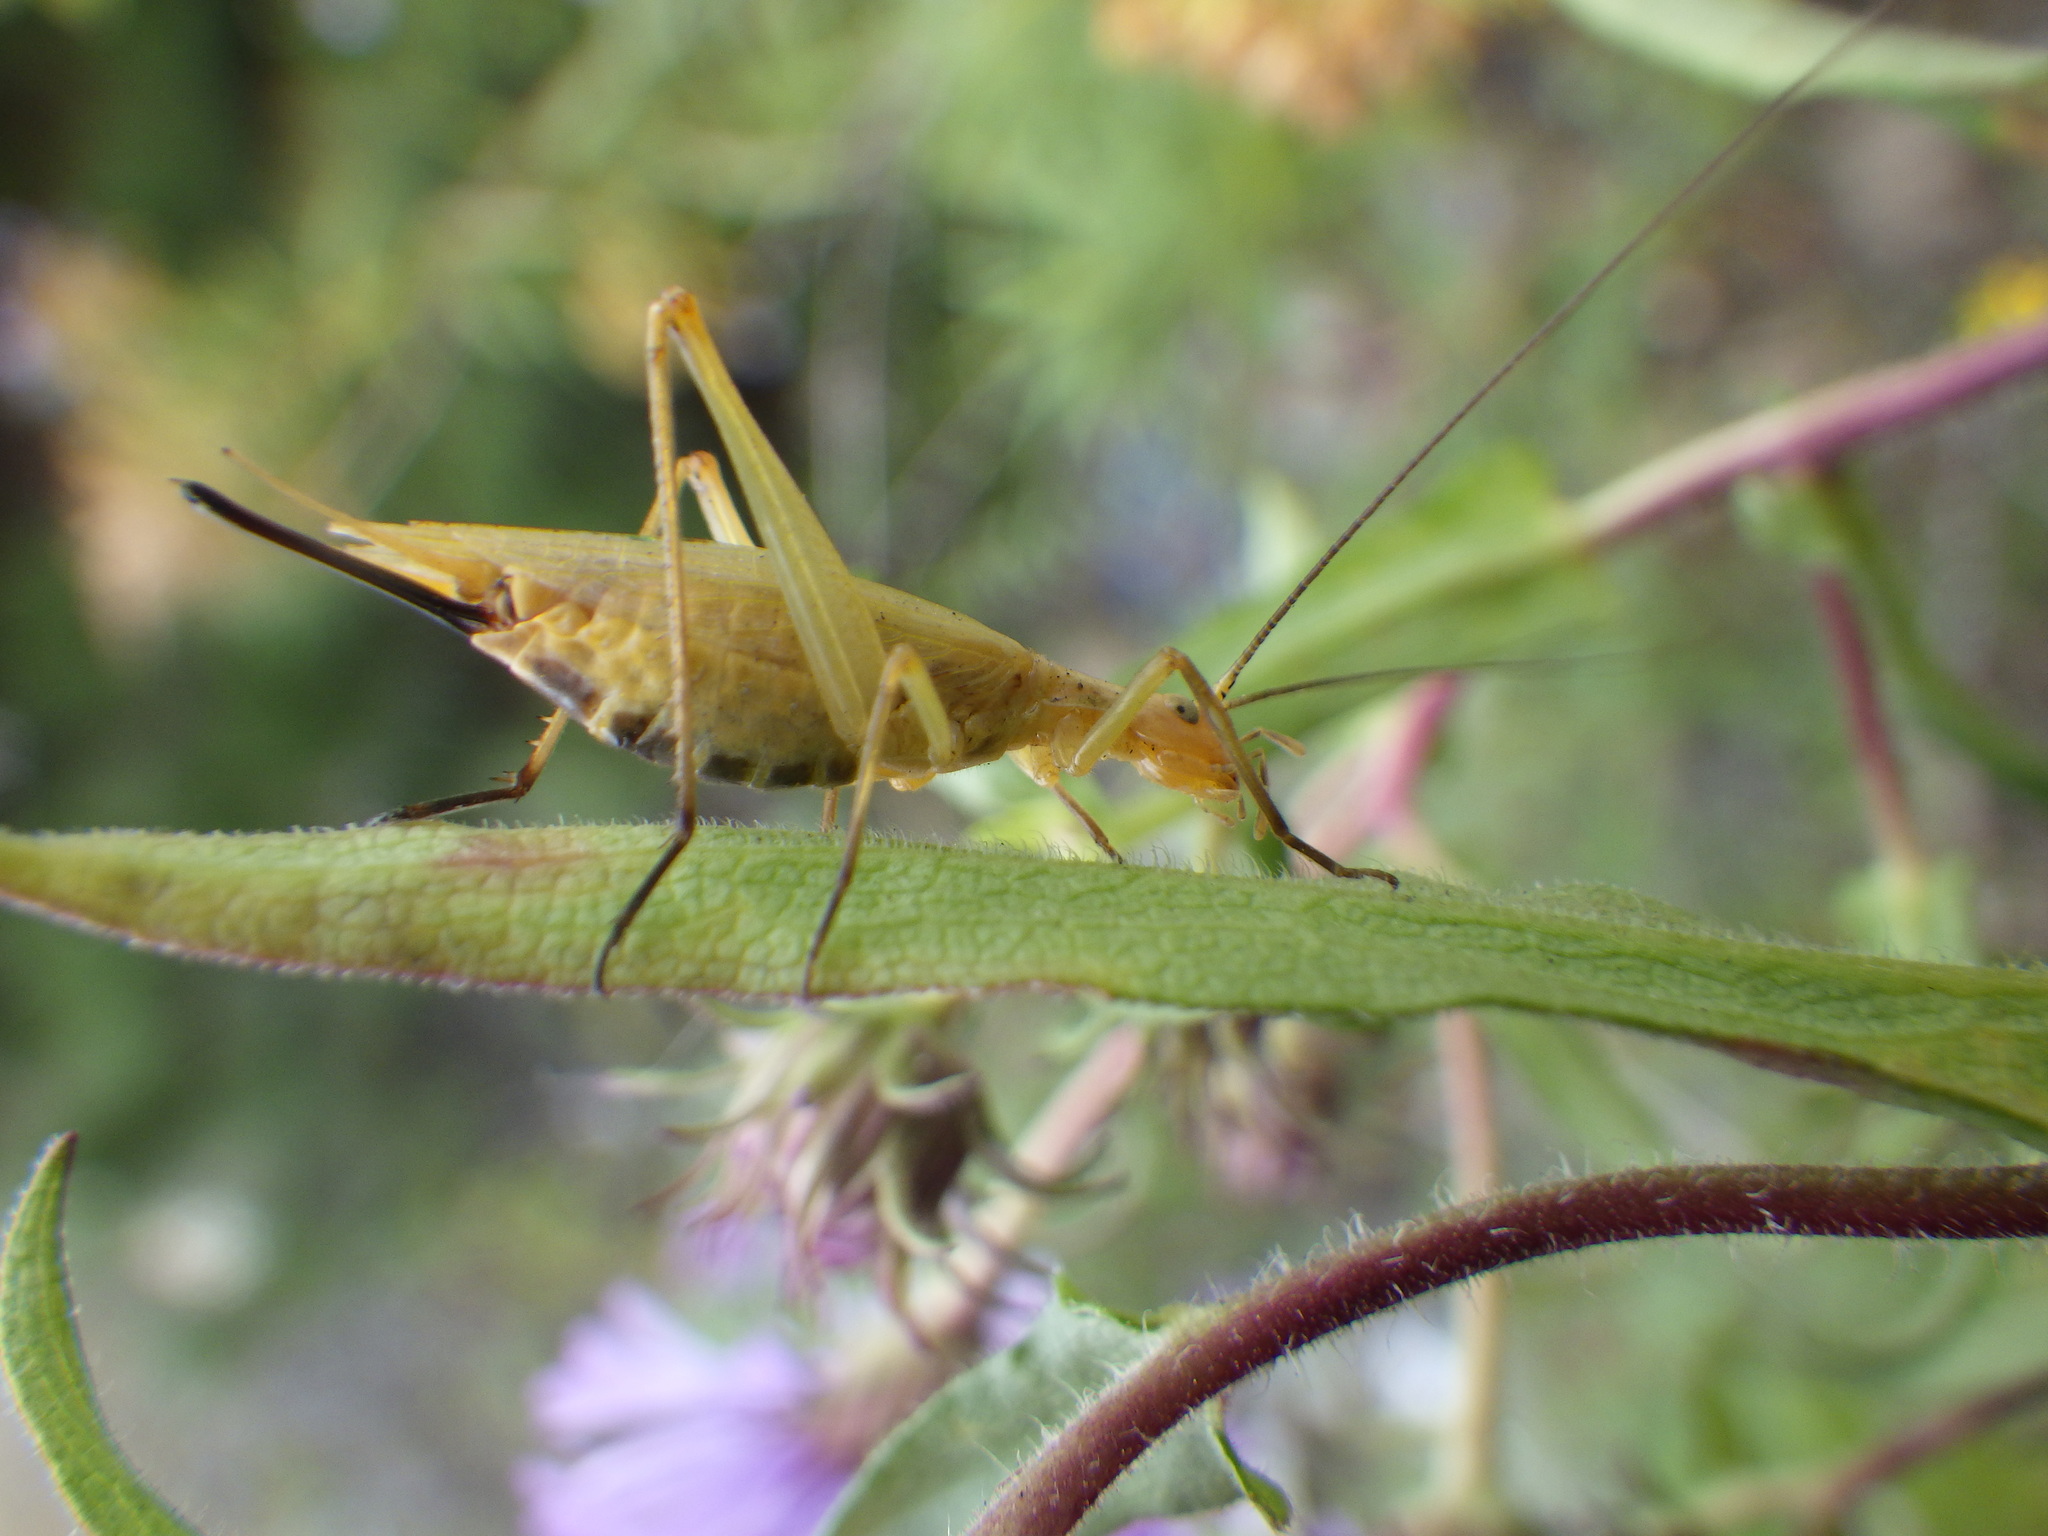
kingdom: Animalia
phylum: Arthropoda
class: Insecta
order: Orthoptera
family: Gryllidae
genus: Oecanthus
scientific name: Oecanthus nigricornis
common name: Black-horned tree cricket
